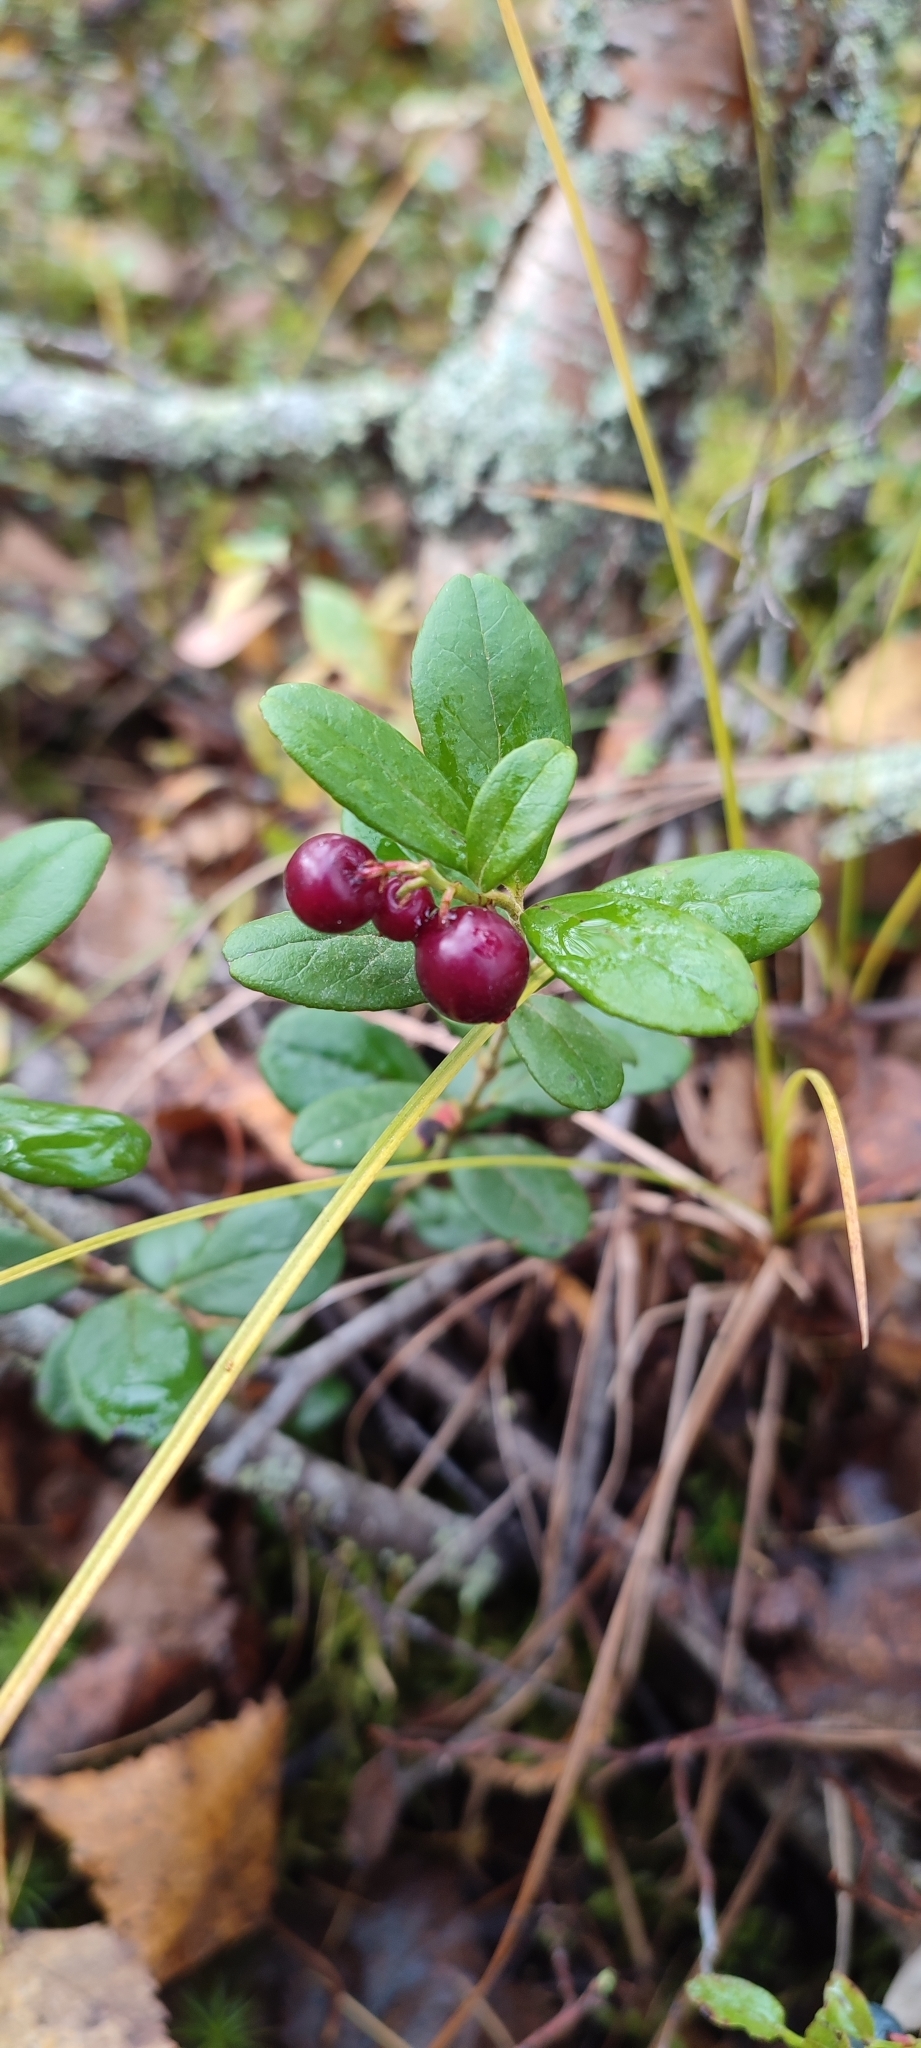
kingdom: Plantae
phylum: Tracheophyta
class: Magnoliopsida
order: Ericales
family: Ericaceae
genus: Vaccinium
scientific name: Vaccinium vitis-idaea
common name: Cowberry
